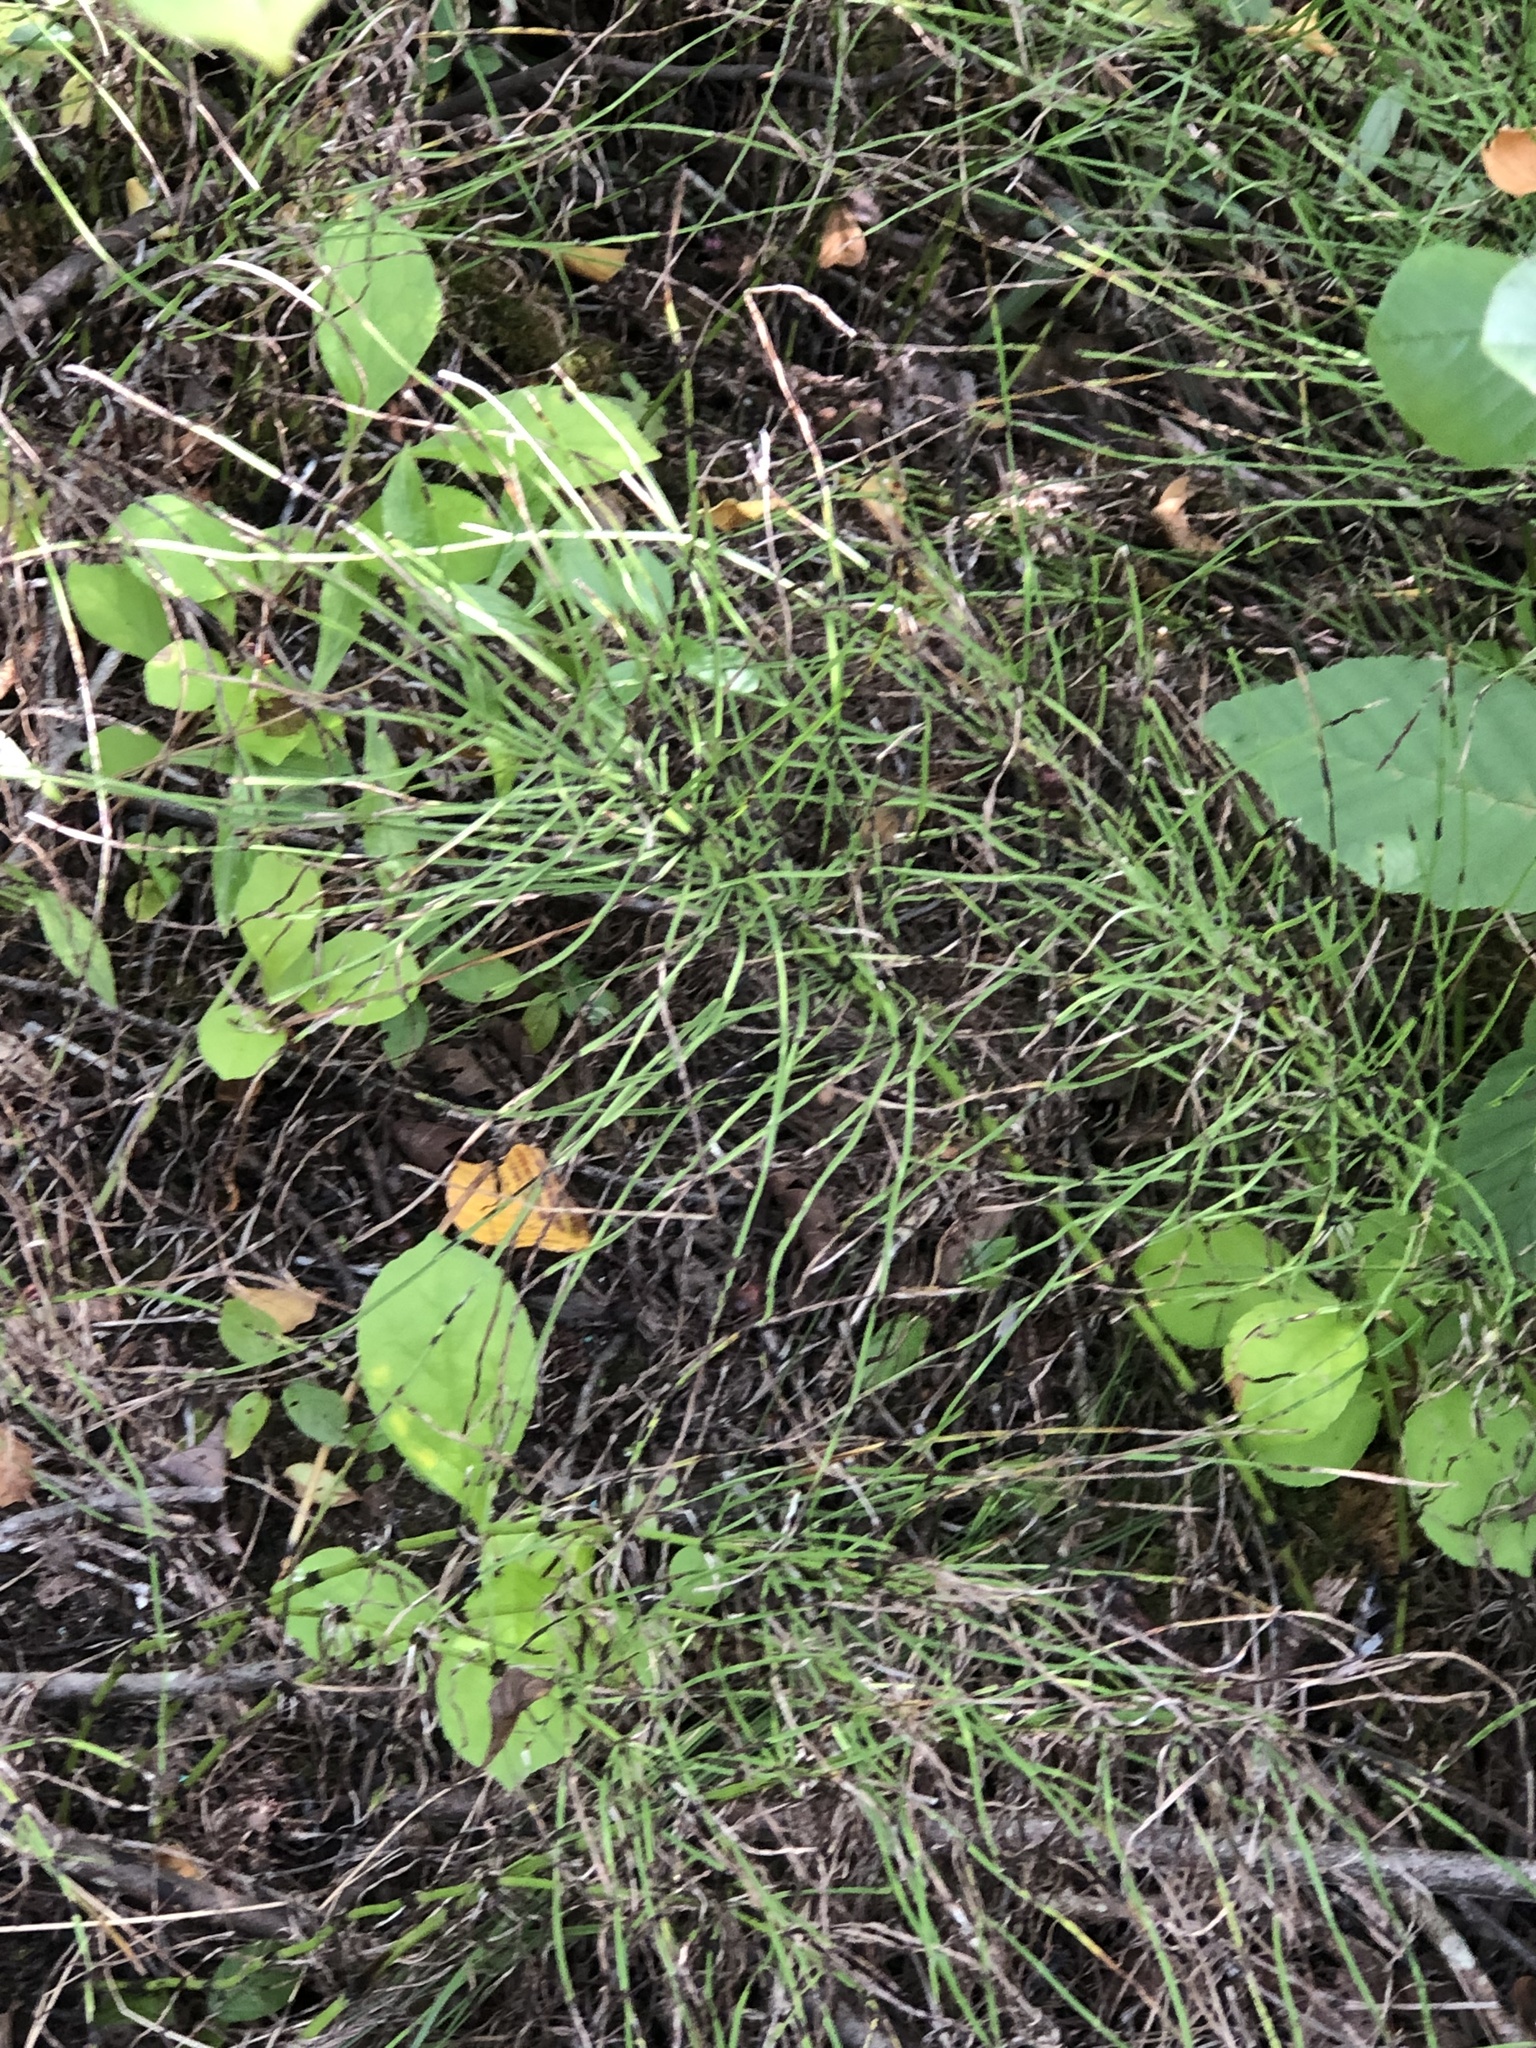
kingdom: Plantae
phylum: Tracheophyta
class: Polypodiopsida
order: Equisetales
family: Equisetaceae
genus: Equisetum
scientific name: Equisetum arvense
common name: Field horsetail
